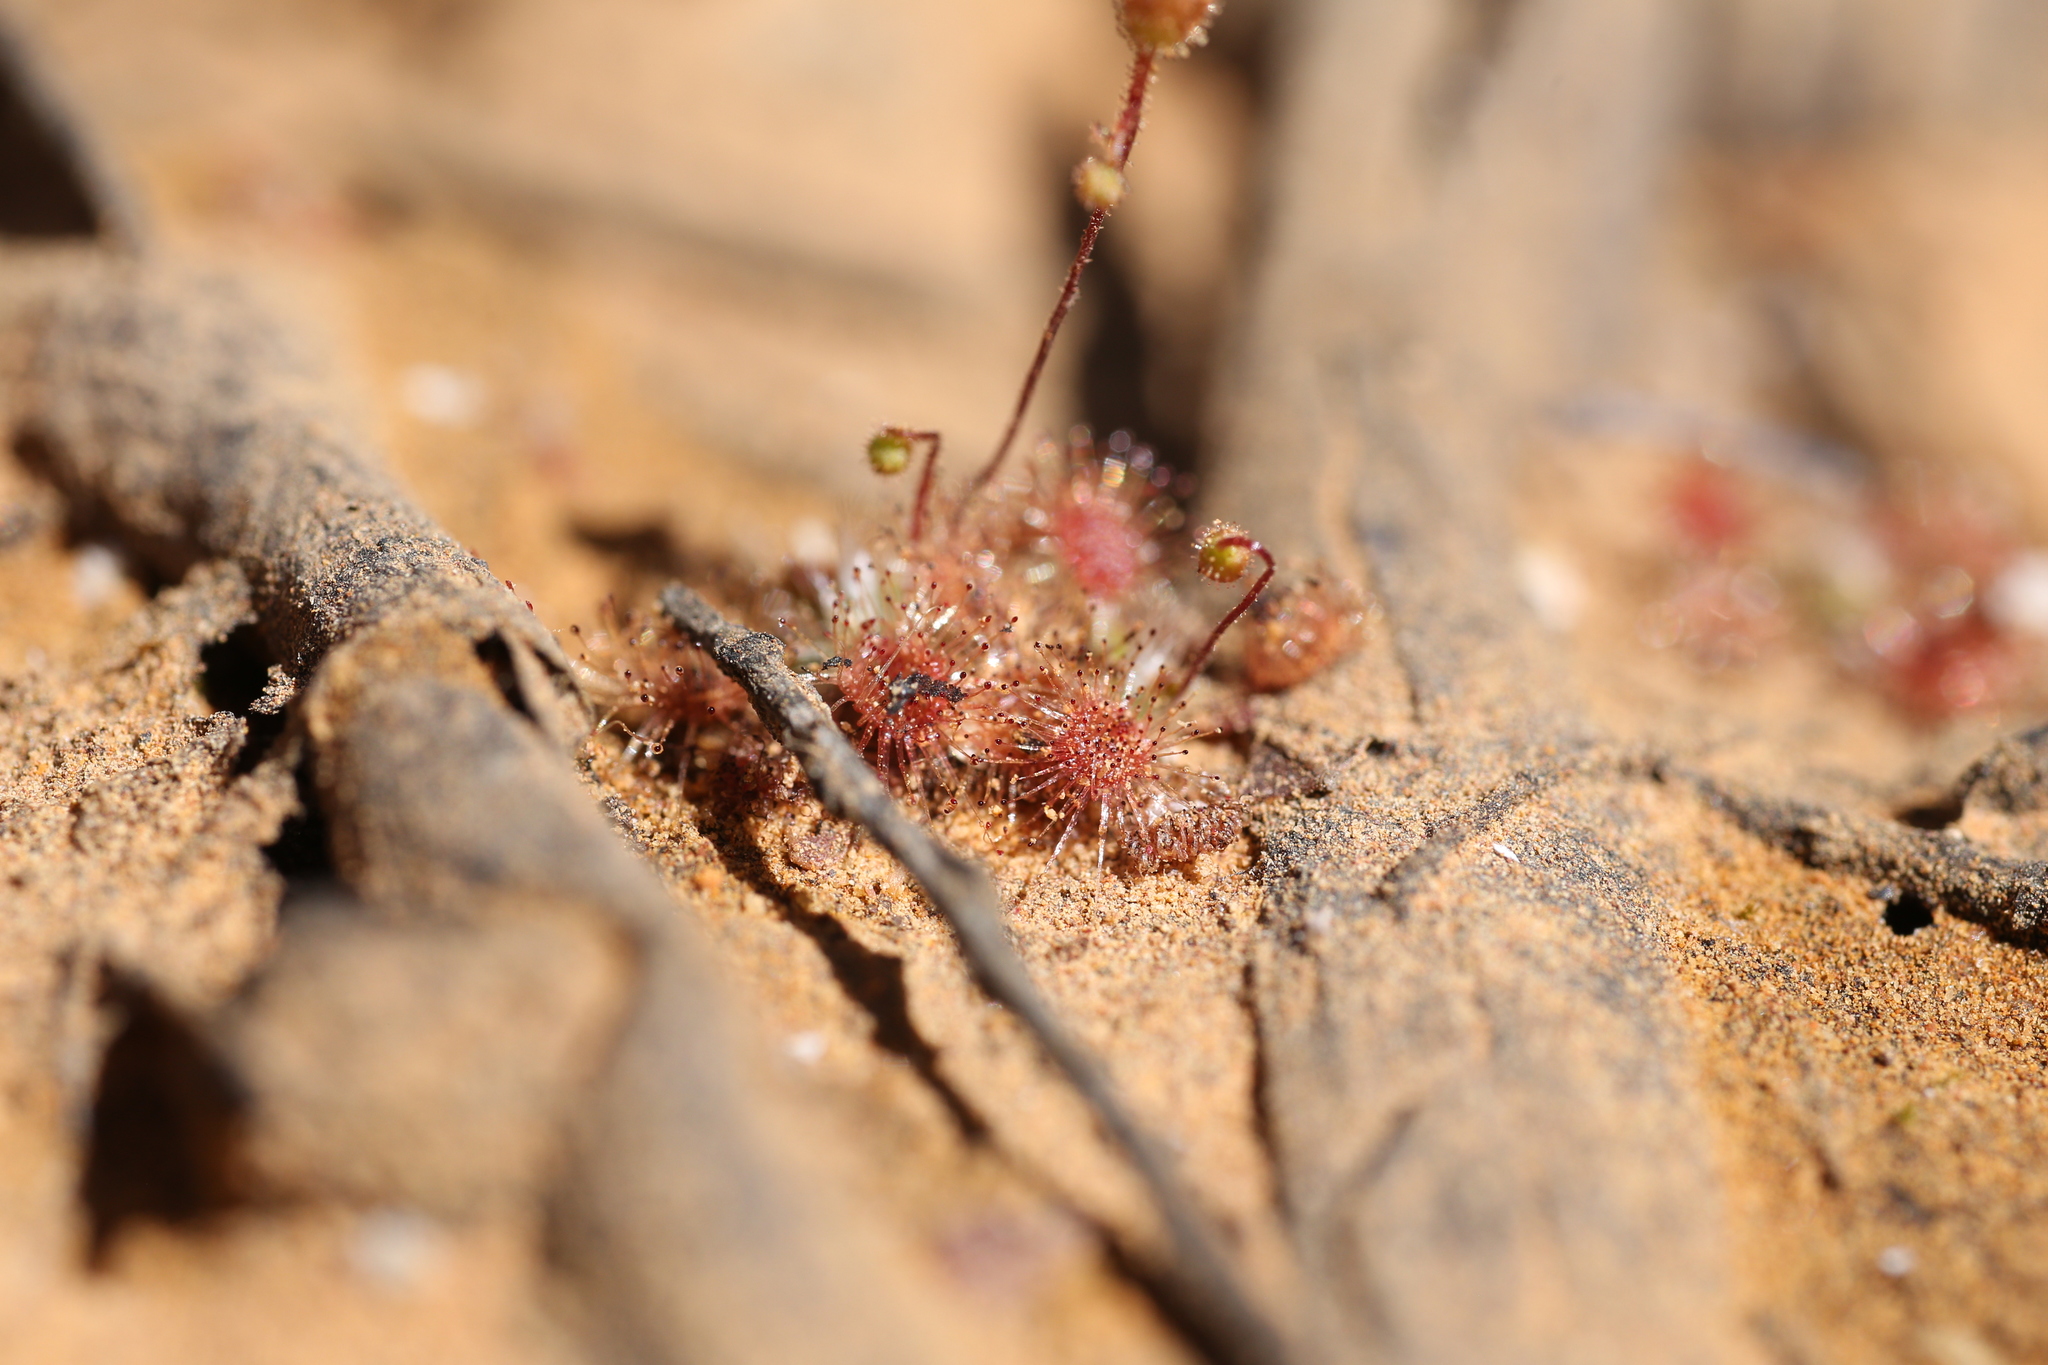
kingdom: Plantae
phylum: Tracheophyta
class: Magnoliopsida
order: Caryophyllales
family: Droseraceae
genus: Drosera
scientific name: Drosera pulchella
